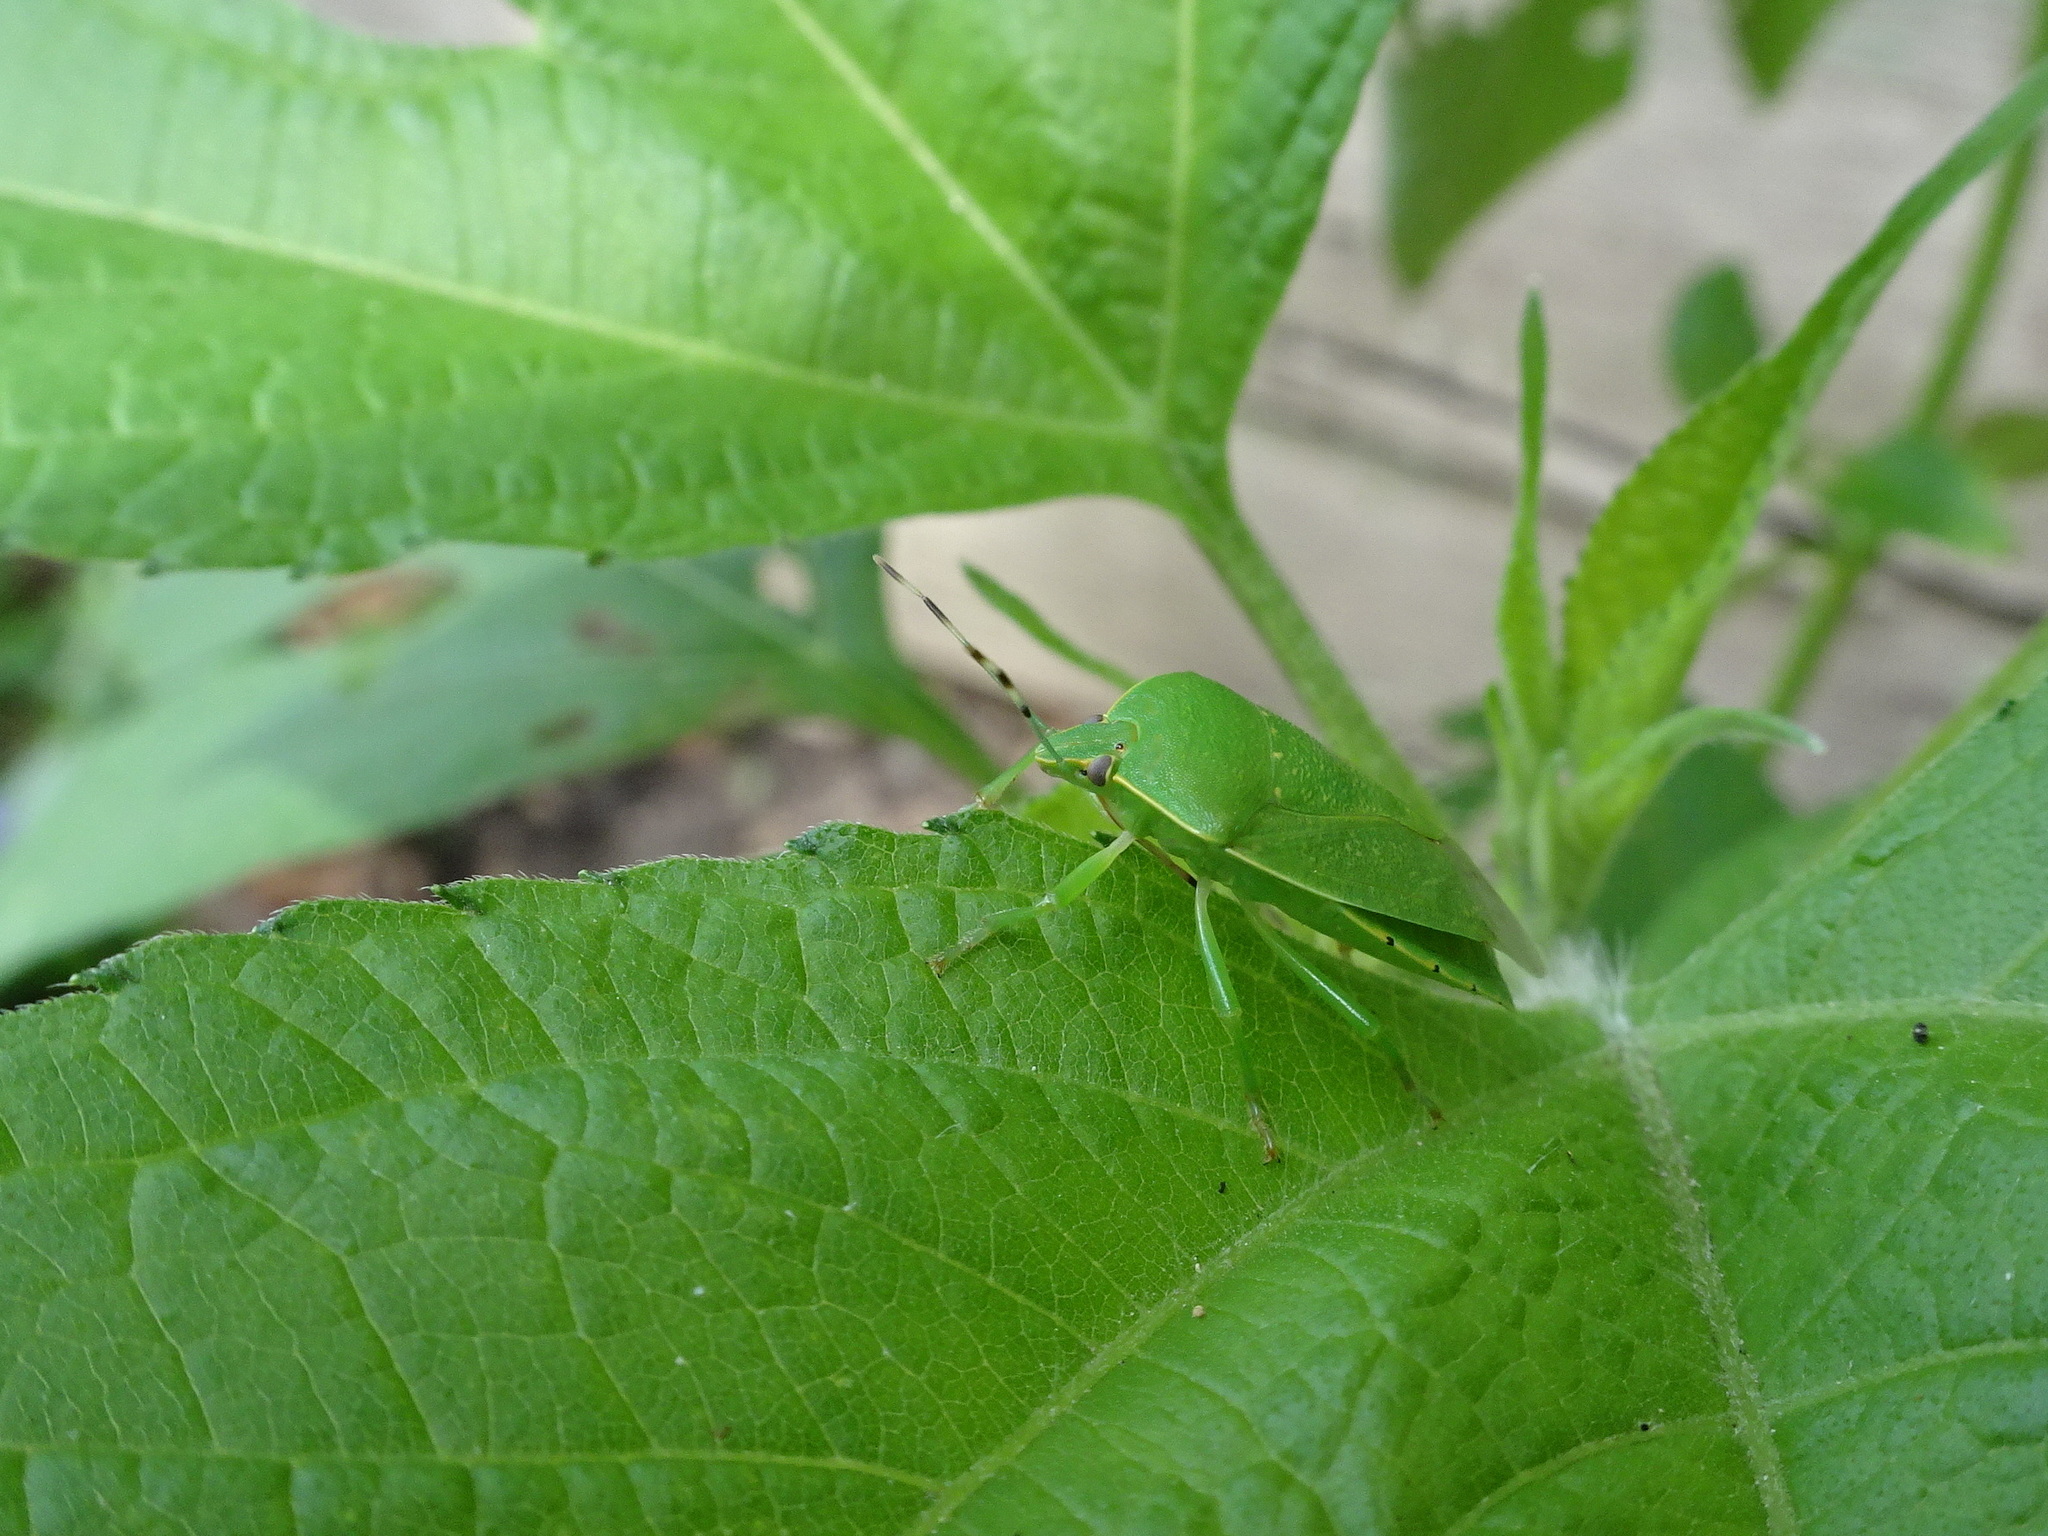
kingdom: Animalia
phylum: Arthropoda
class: Insecta
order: Hemiptera
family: Pentatomidae
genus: Chinavia
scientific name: Chinavia hilaris
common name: Green stink bug
